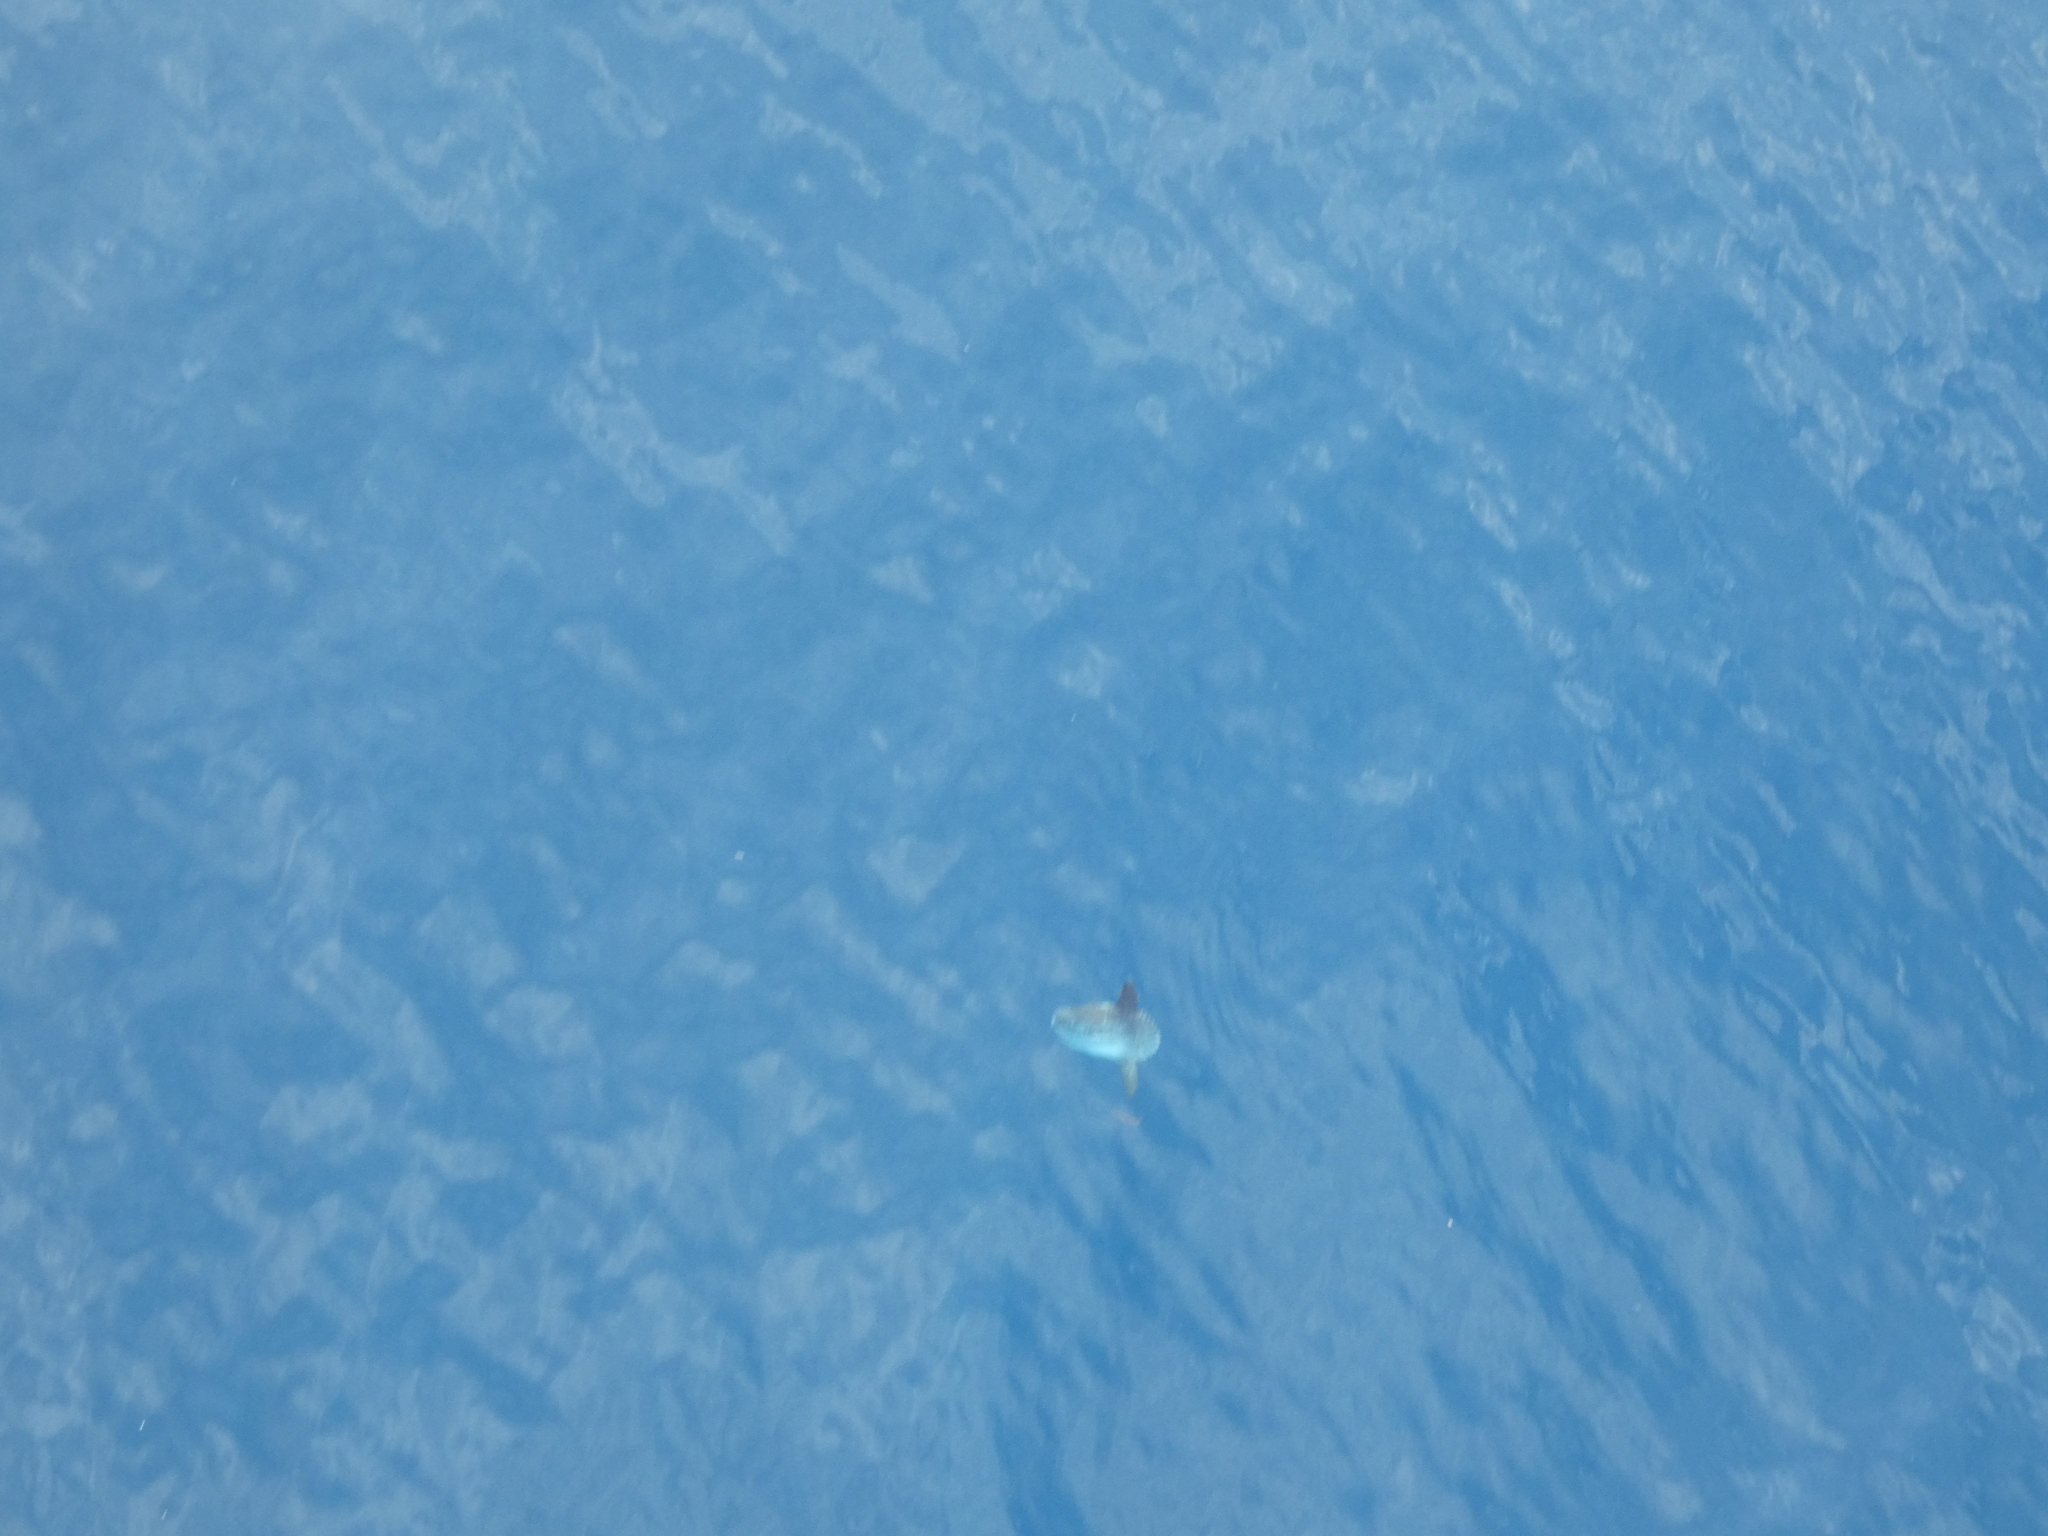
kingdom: Animalia
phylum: Chordata
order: Tetraodontiformes
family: Molidae
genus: Mola
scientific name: Mola mola
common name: Ocean sunfish
